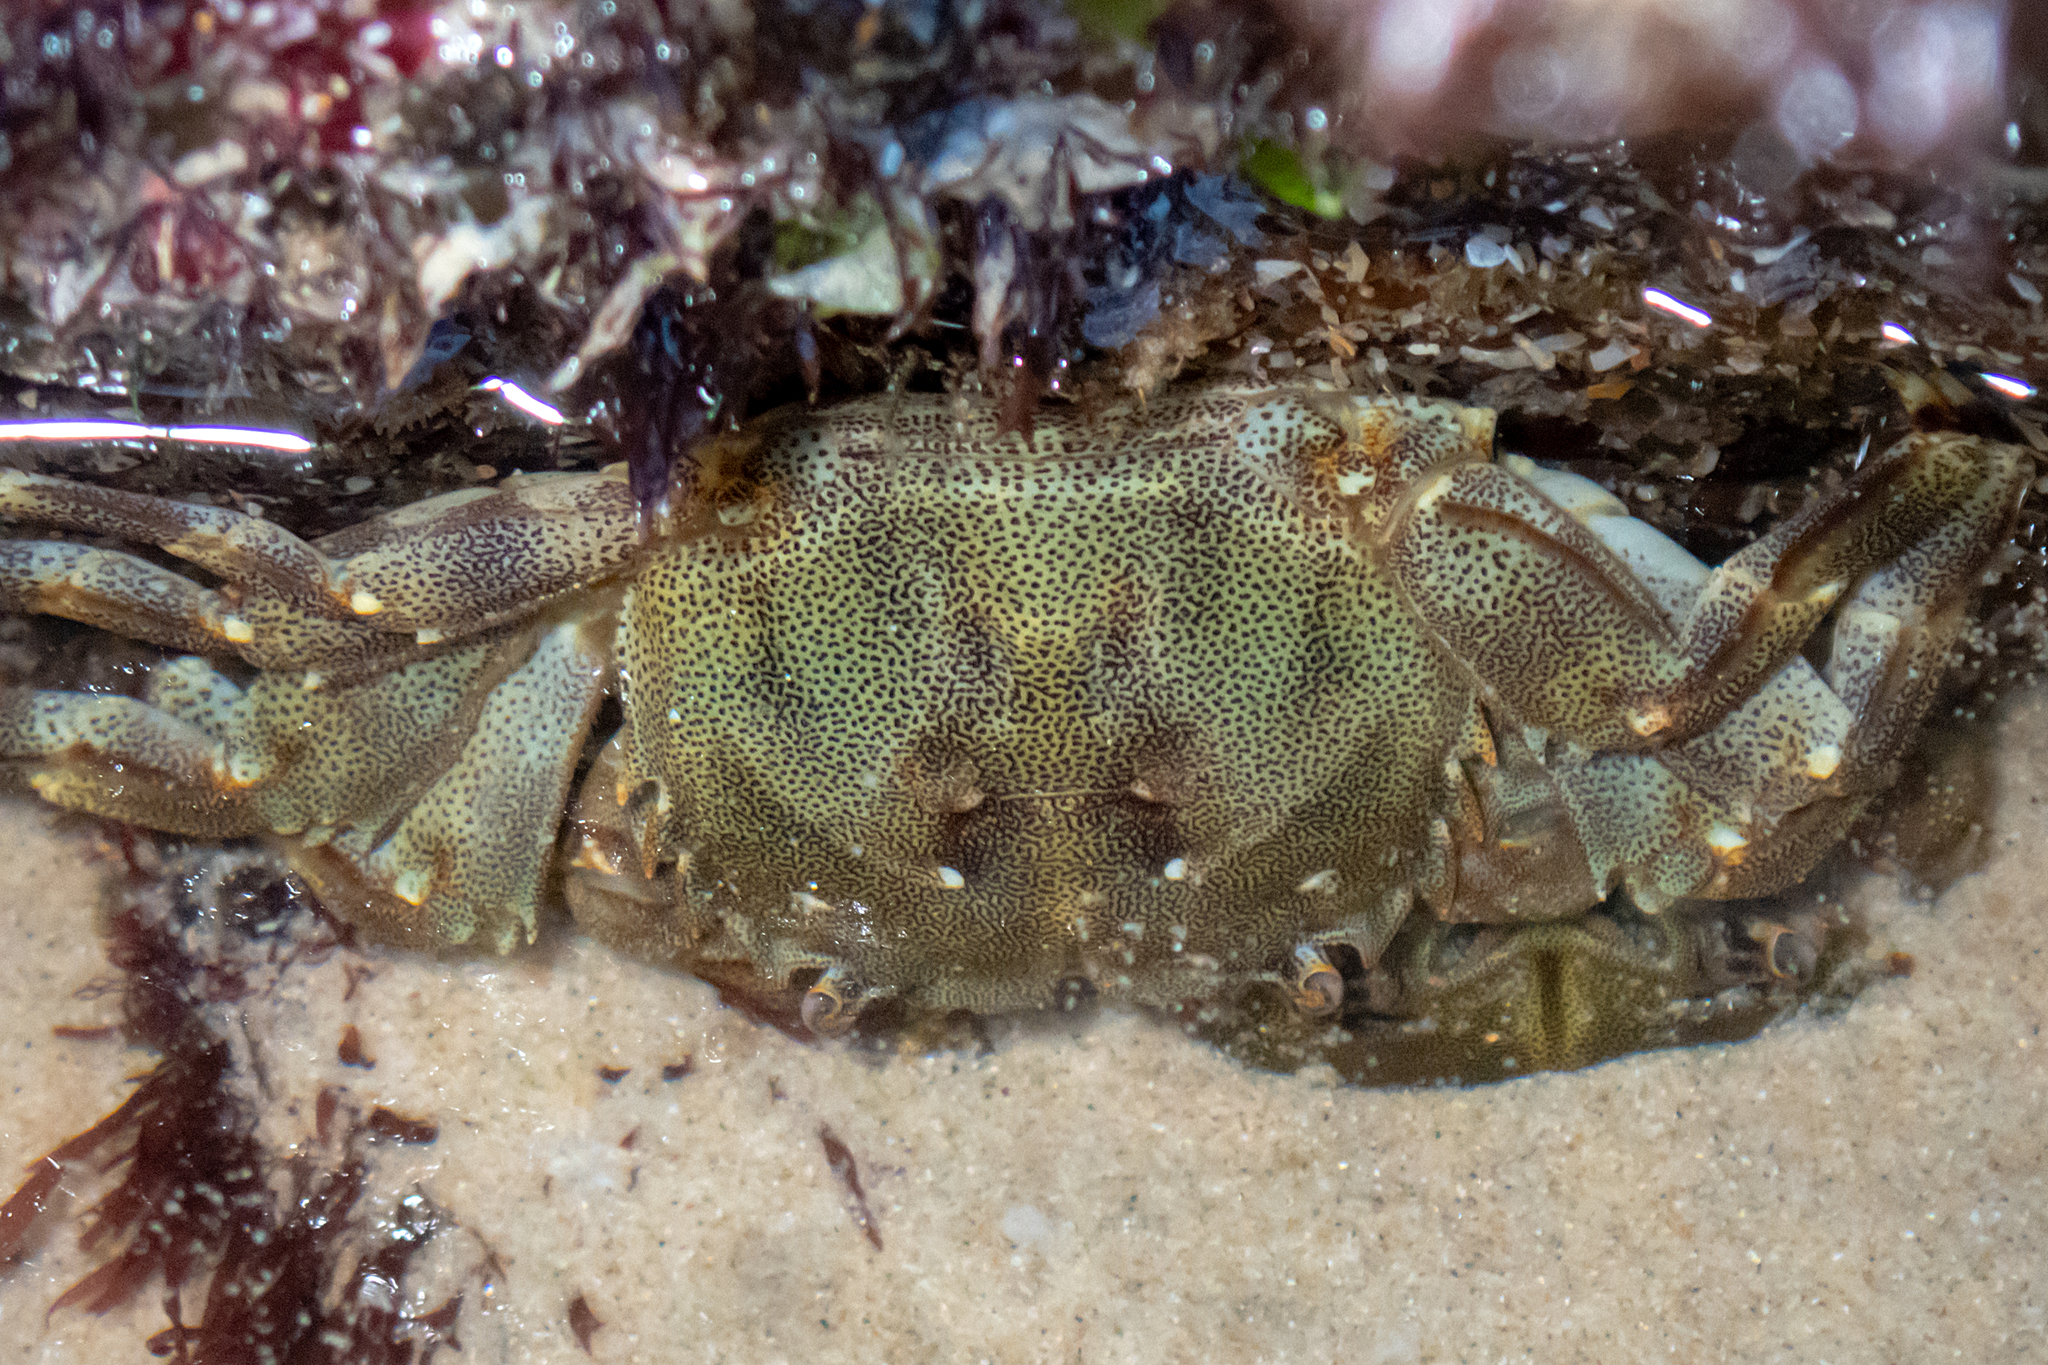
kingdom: Animalia
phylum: Arthropoda
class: Malacostraca
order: Decapoda
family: Plagusiidae
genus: Davusia
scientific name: Davusia glabra
